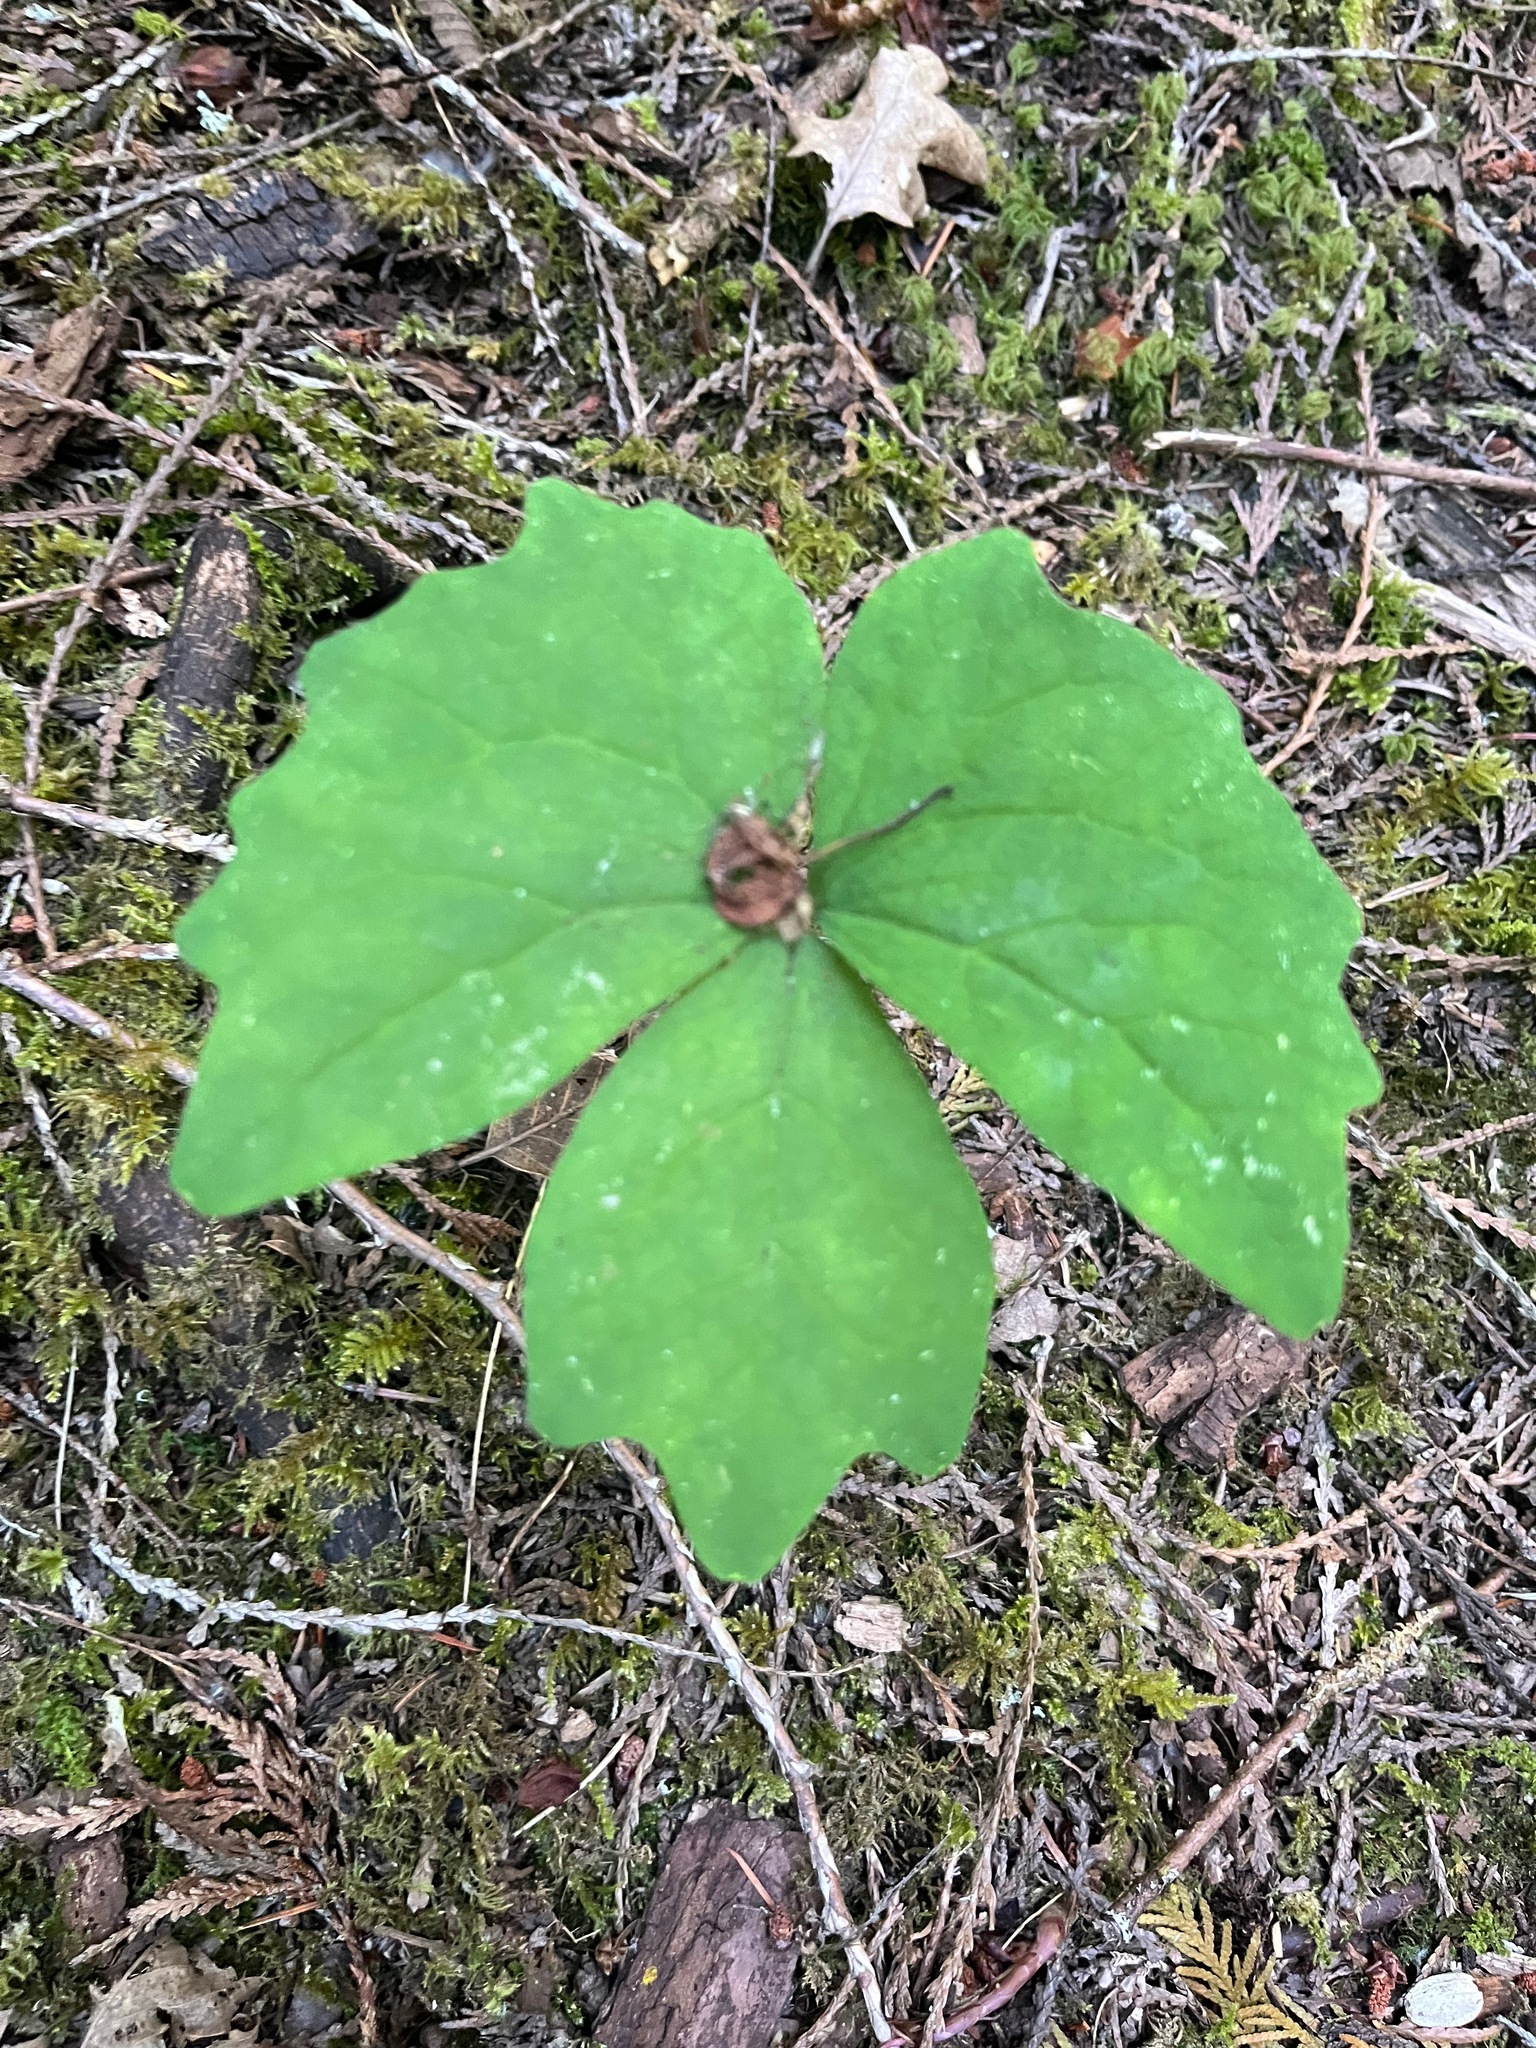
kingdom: Plantae
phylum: Tracheophyta
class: Magnoliopsida
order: Ranunculales
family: Berberidaceae
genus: Achlys
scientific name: Achlys triphylla
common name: Vanilla-leaf
